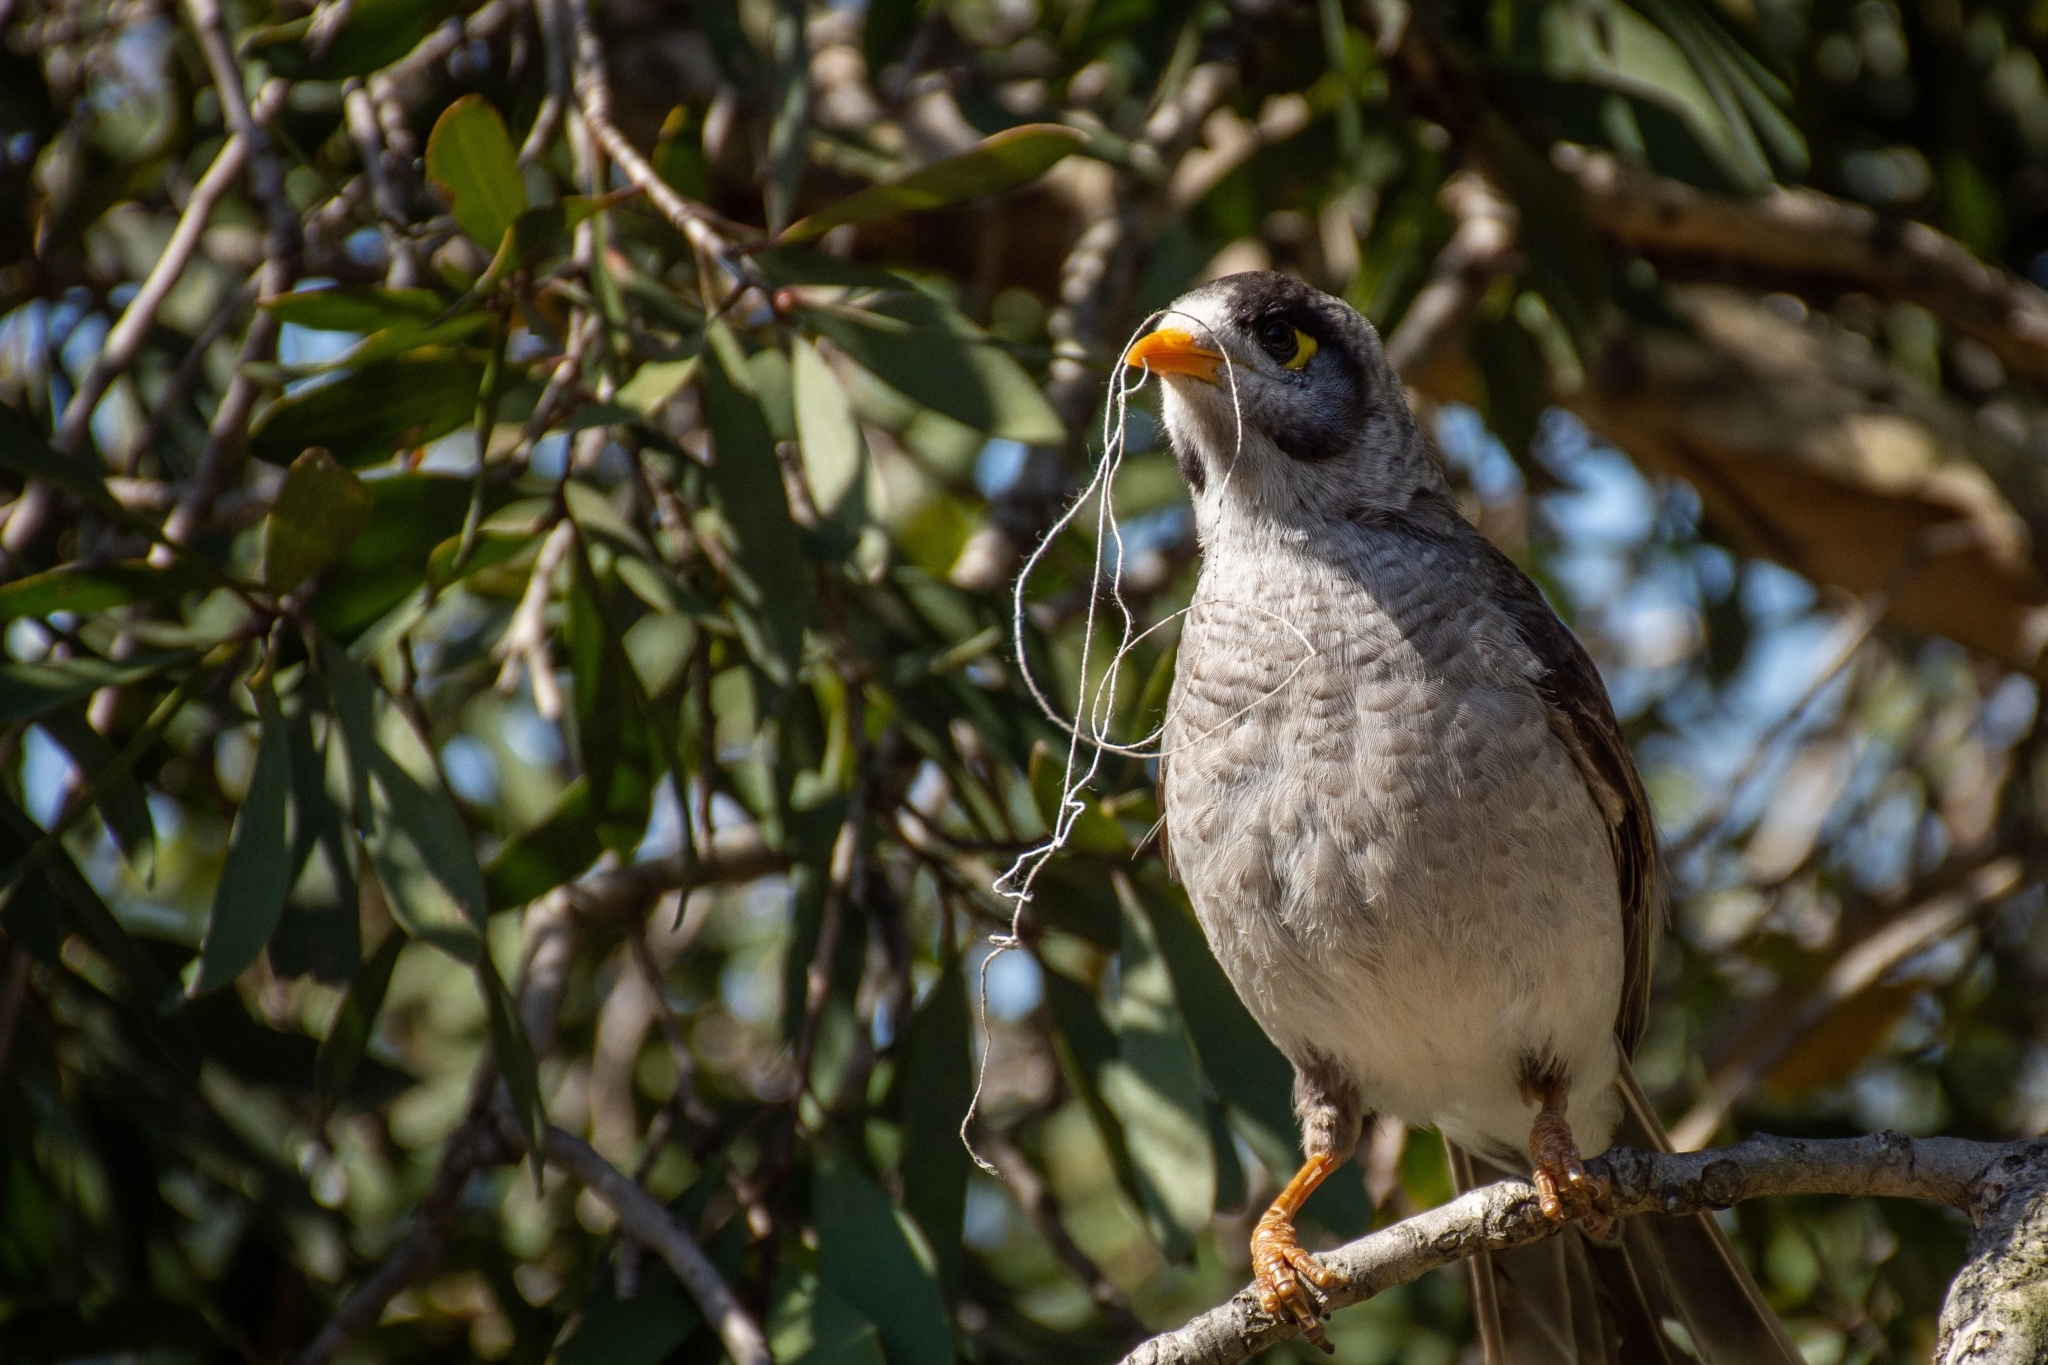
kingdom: Animalia
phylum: Chordata
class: Aves
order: Passeriformes
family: Meliphagidae
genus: Manorina
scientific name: Manorina melanocephala
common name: Noisy miner
